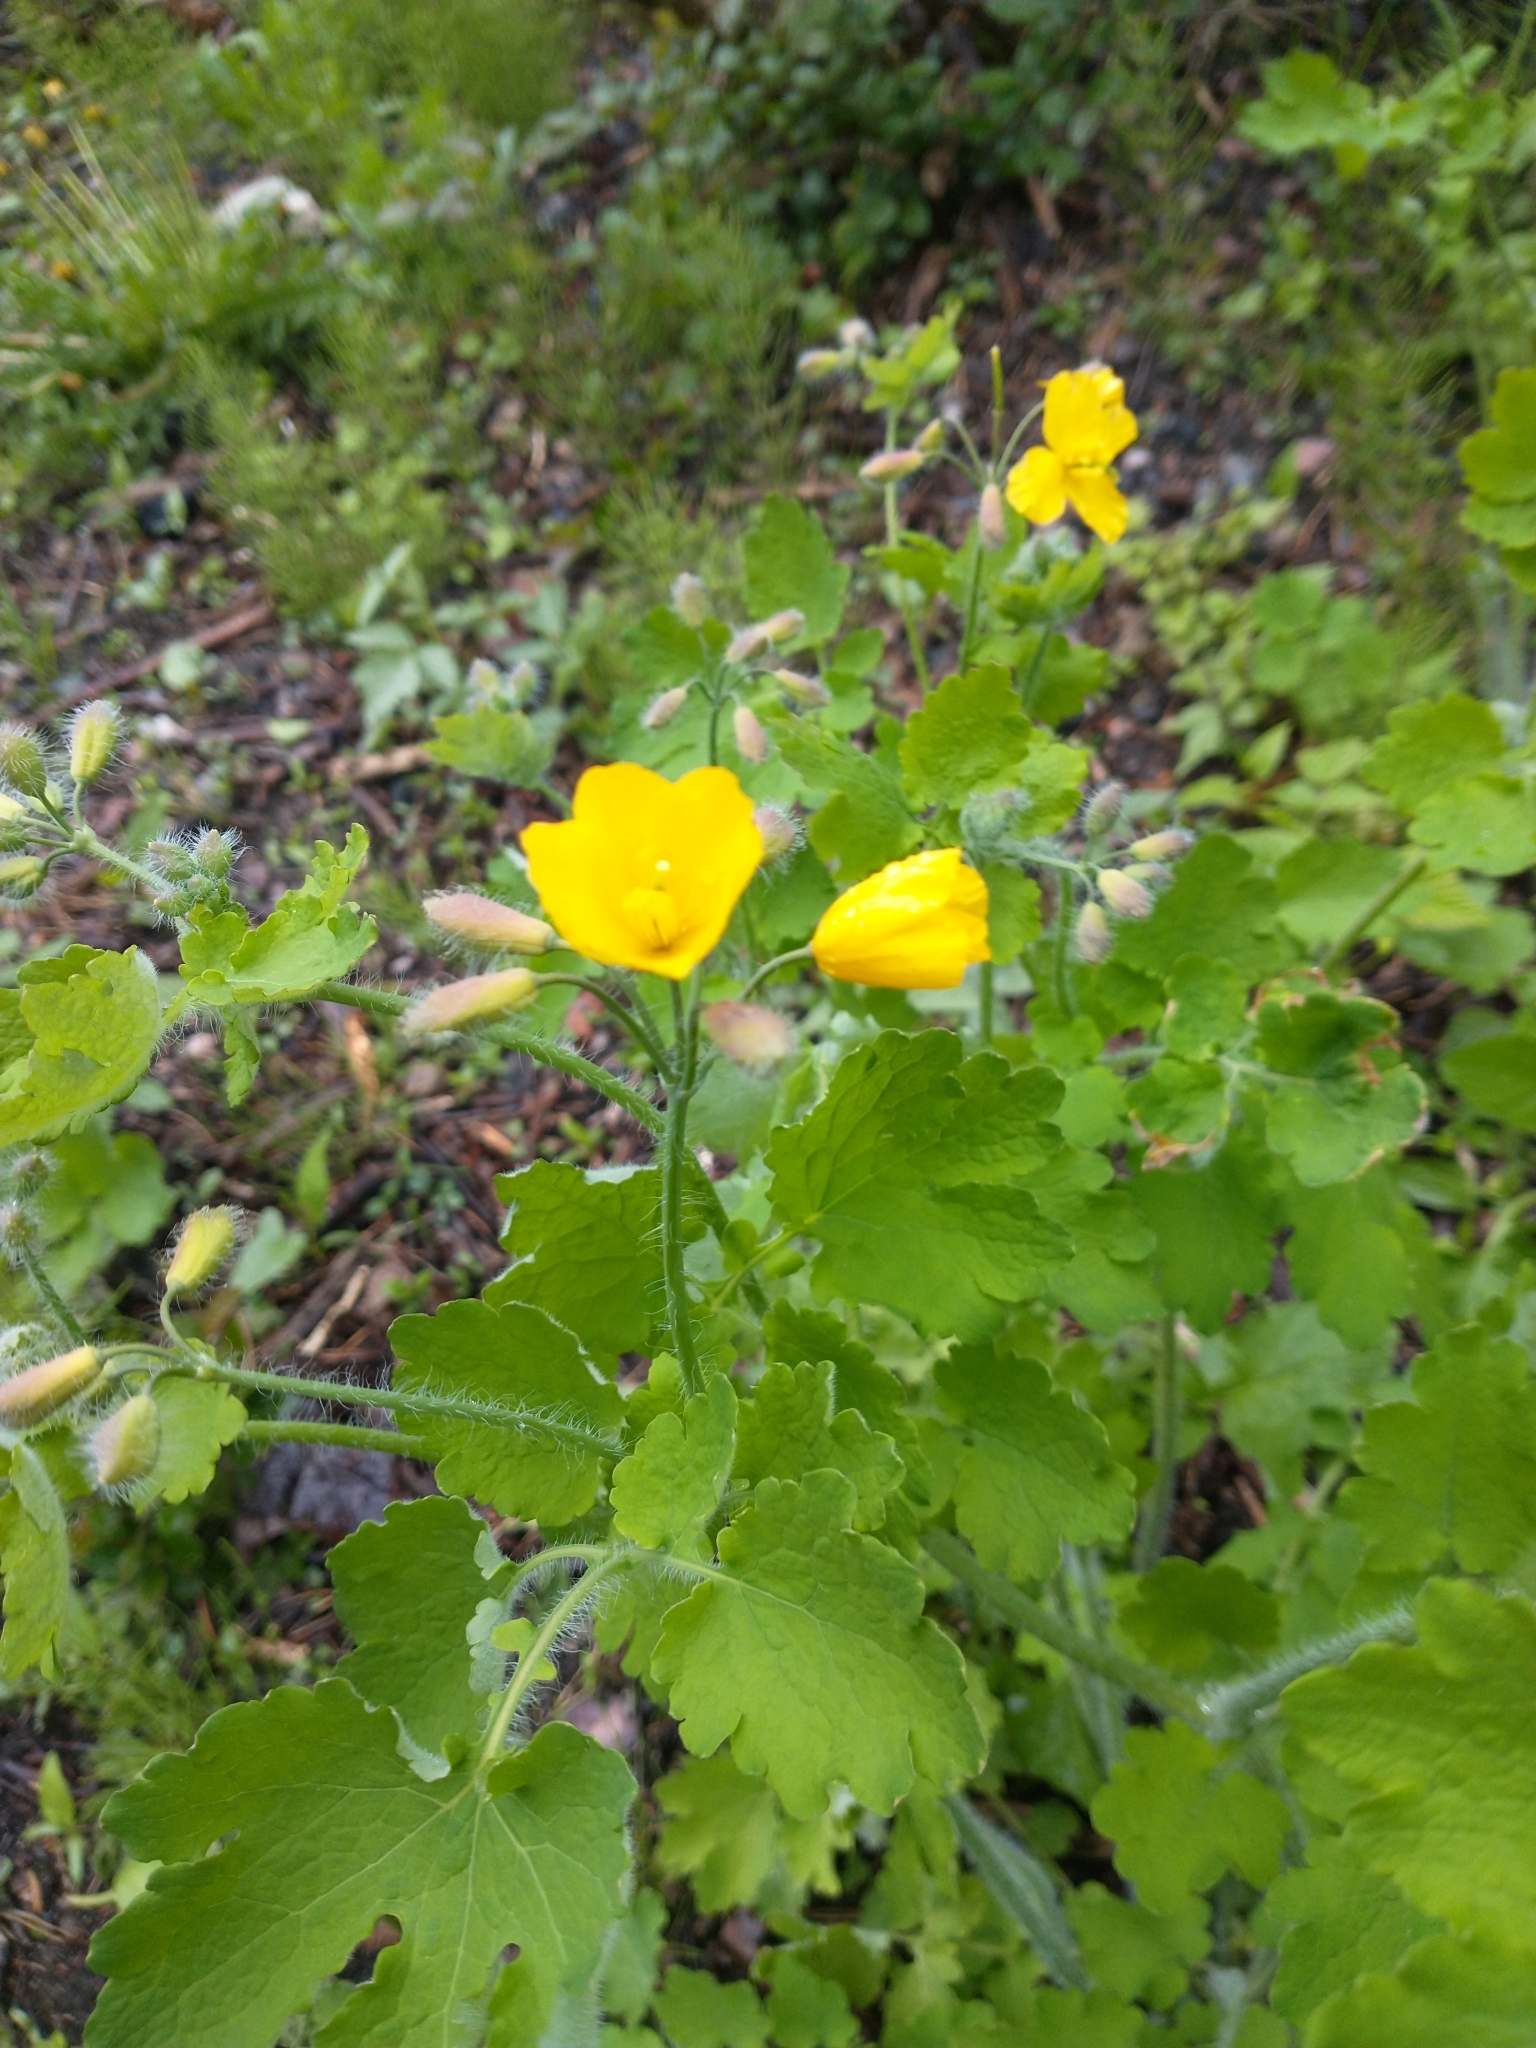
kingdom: Plantae
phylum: Tracheophyta
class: Magnoliopsida
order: Ranunculales
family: Papaveraceae
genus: Chelidonium
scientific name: Chelidonium majus
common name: Greater celandine
